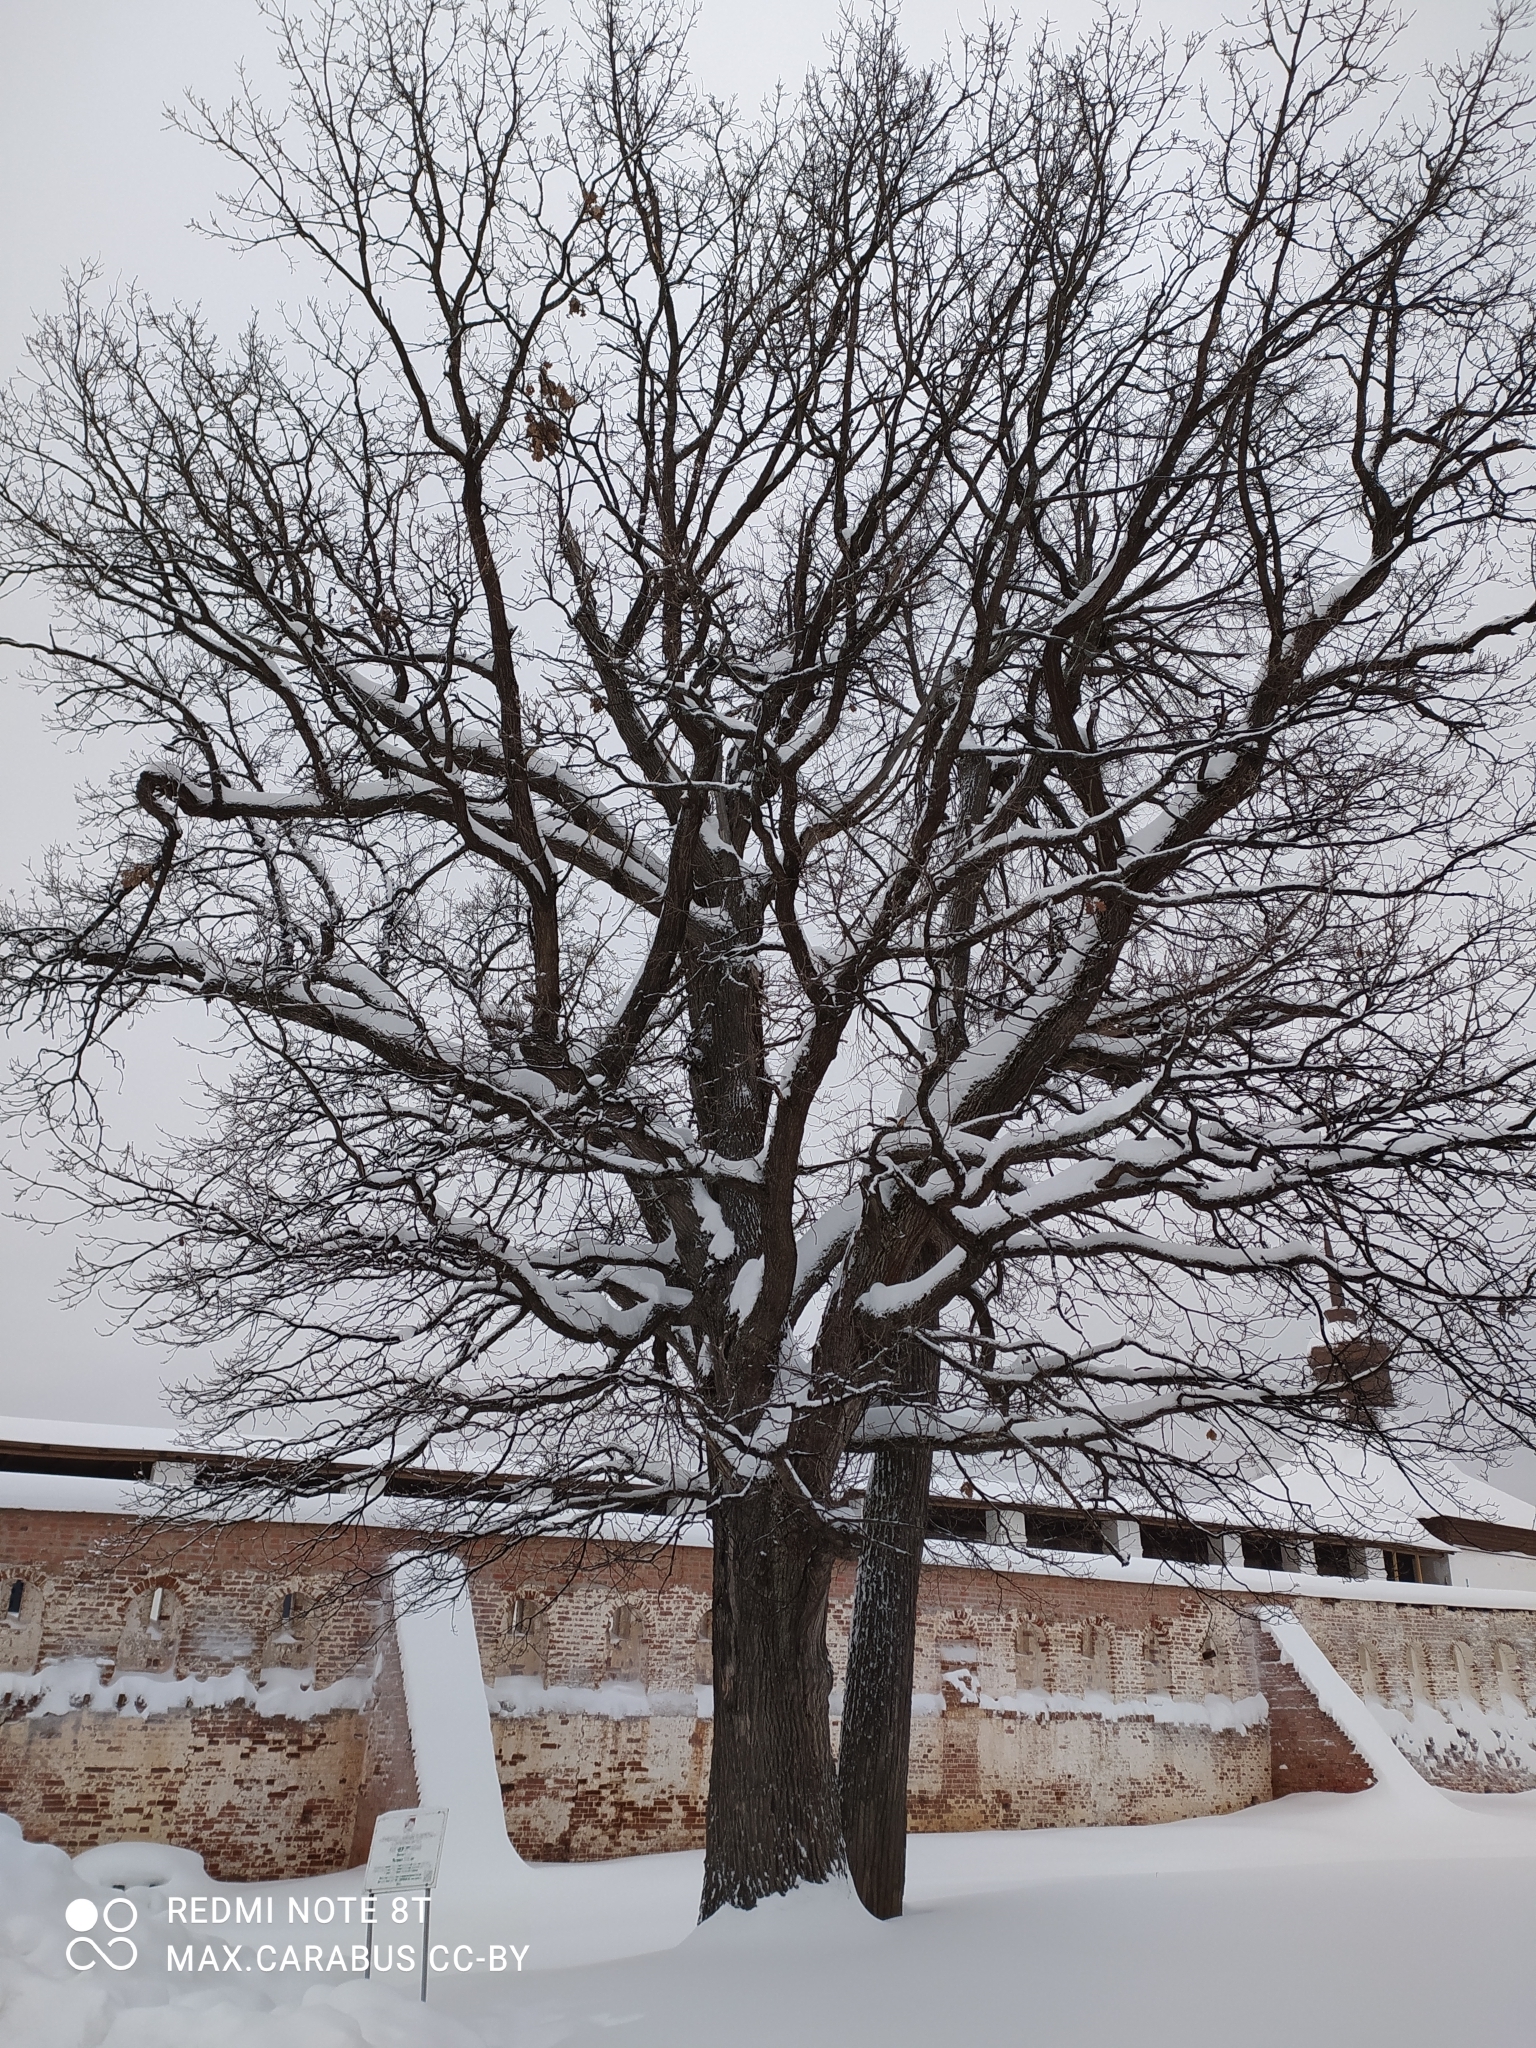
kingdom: Plantae
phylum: Tracheophyta
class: Magnoliopsida
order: Fagales
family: Fagaceae
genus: Quercus
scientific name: Quercus robur
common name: Pedunculate oak
